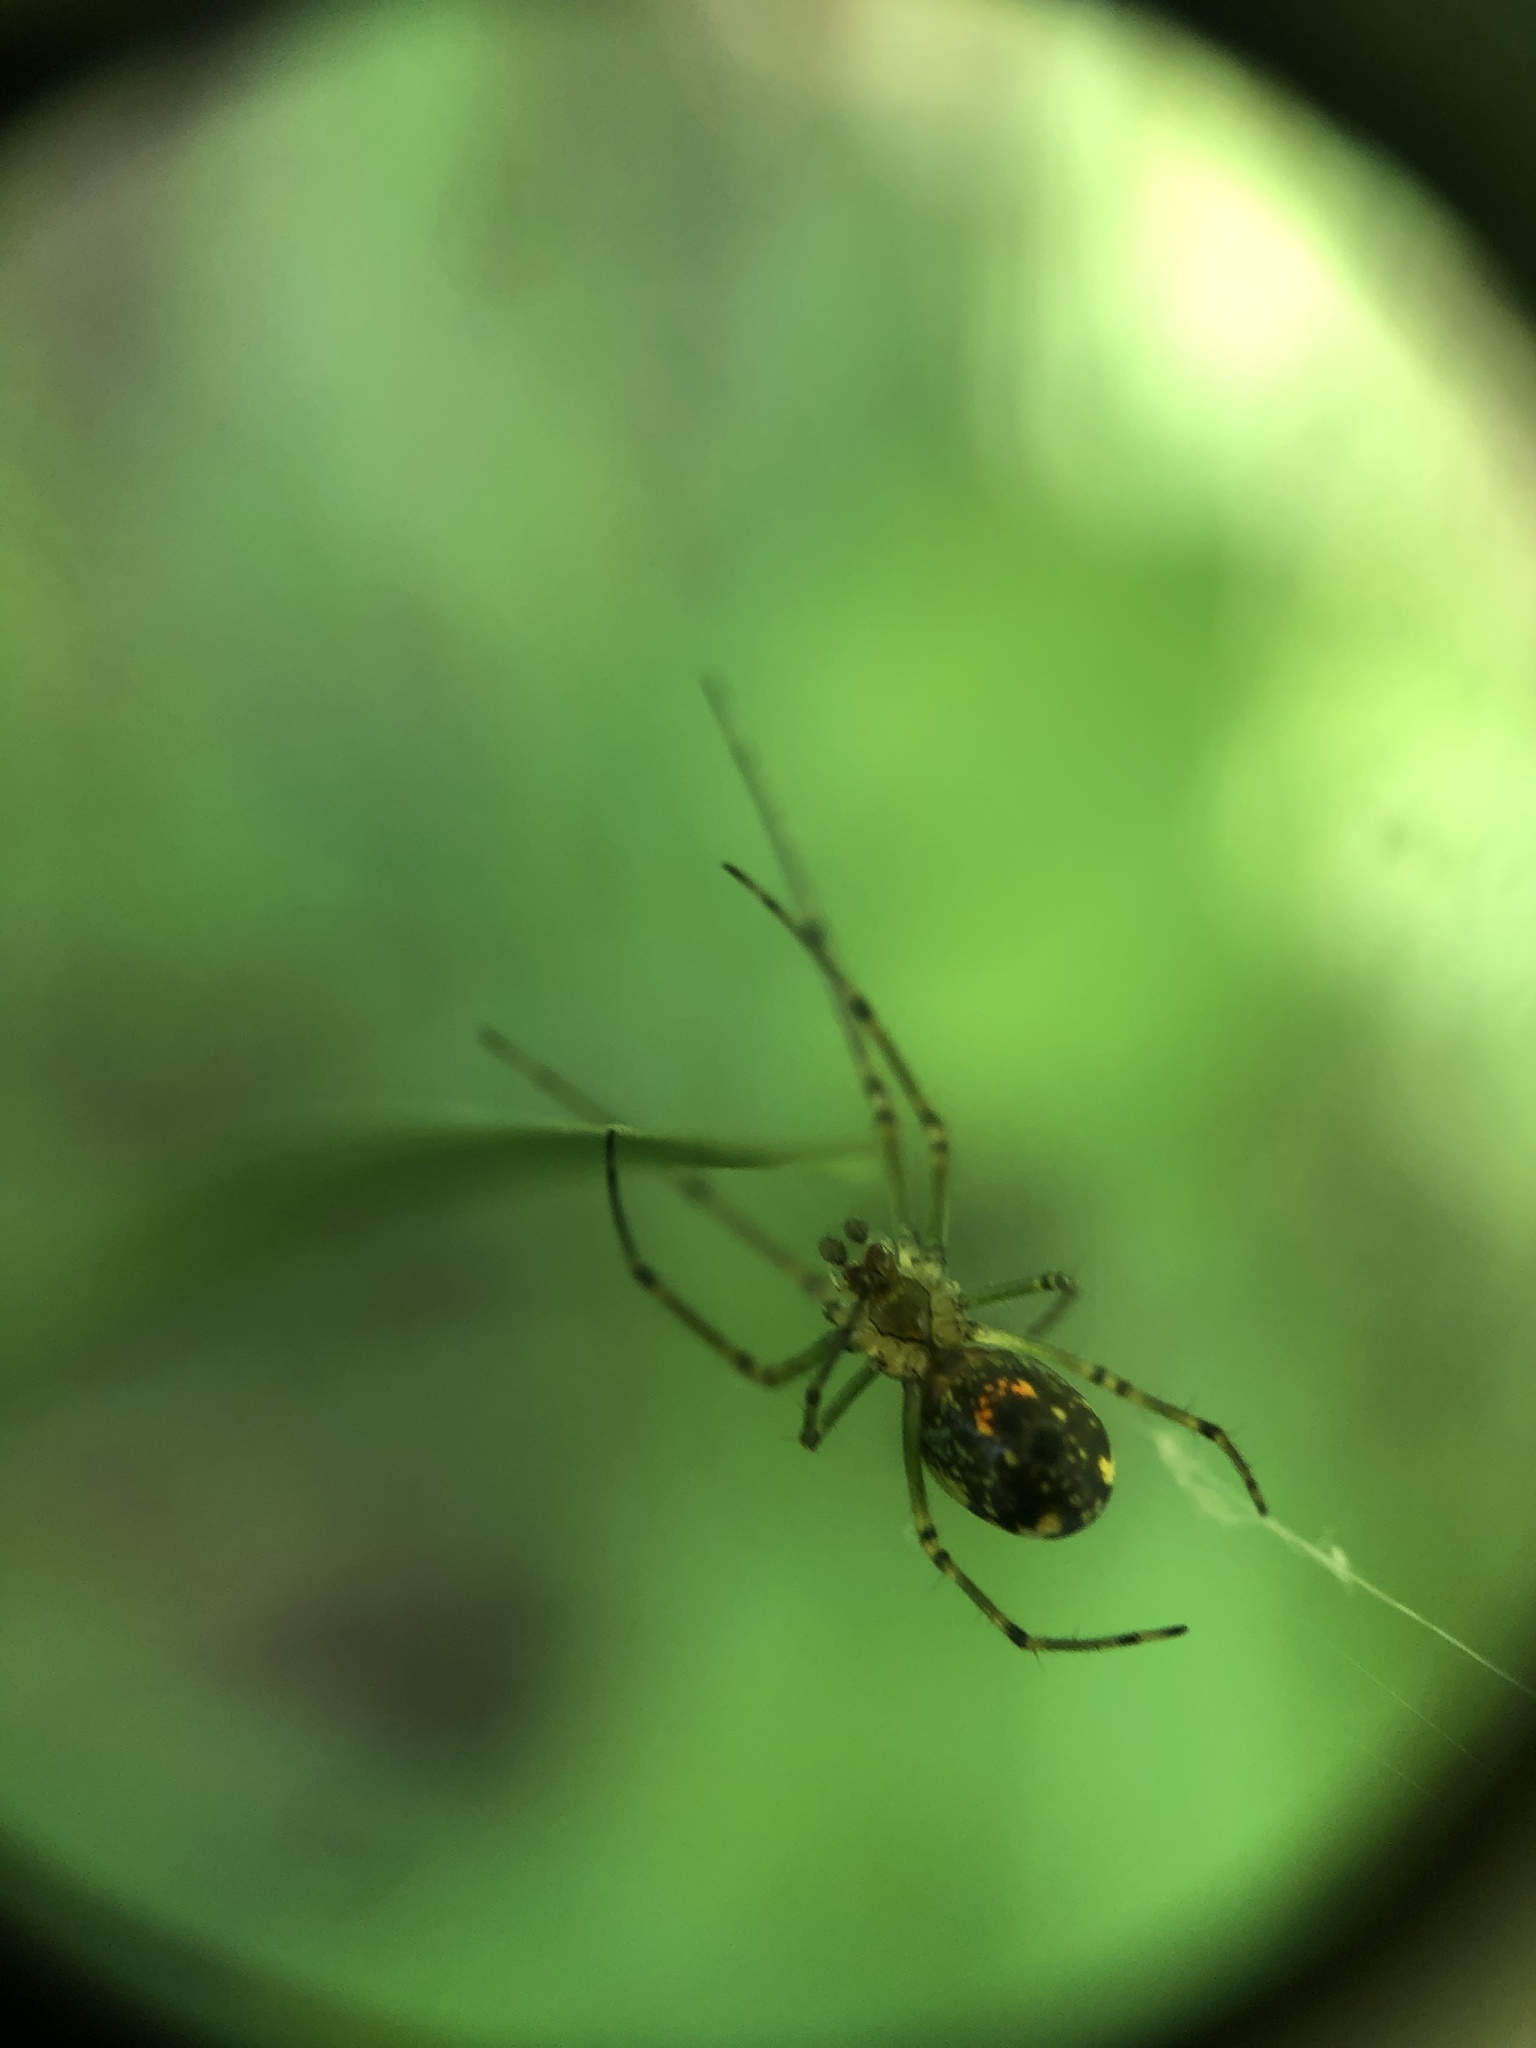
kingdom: Animalia
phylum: Arthropoda
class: Arachnida
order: Araneae
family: Tetragnathidae
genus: Leucauge
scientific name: Leucauge venusta
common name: Longjawed orb weavers
